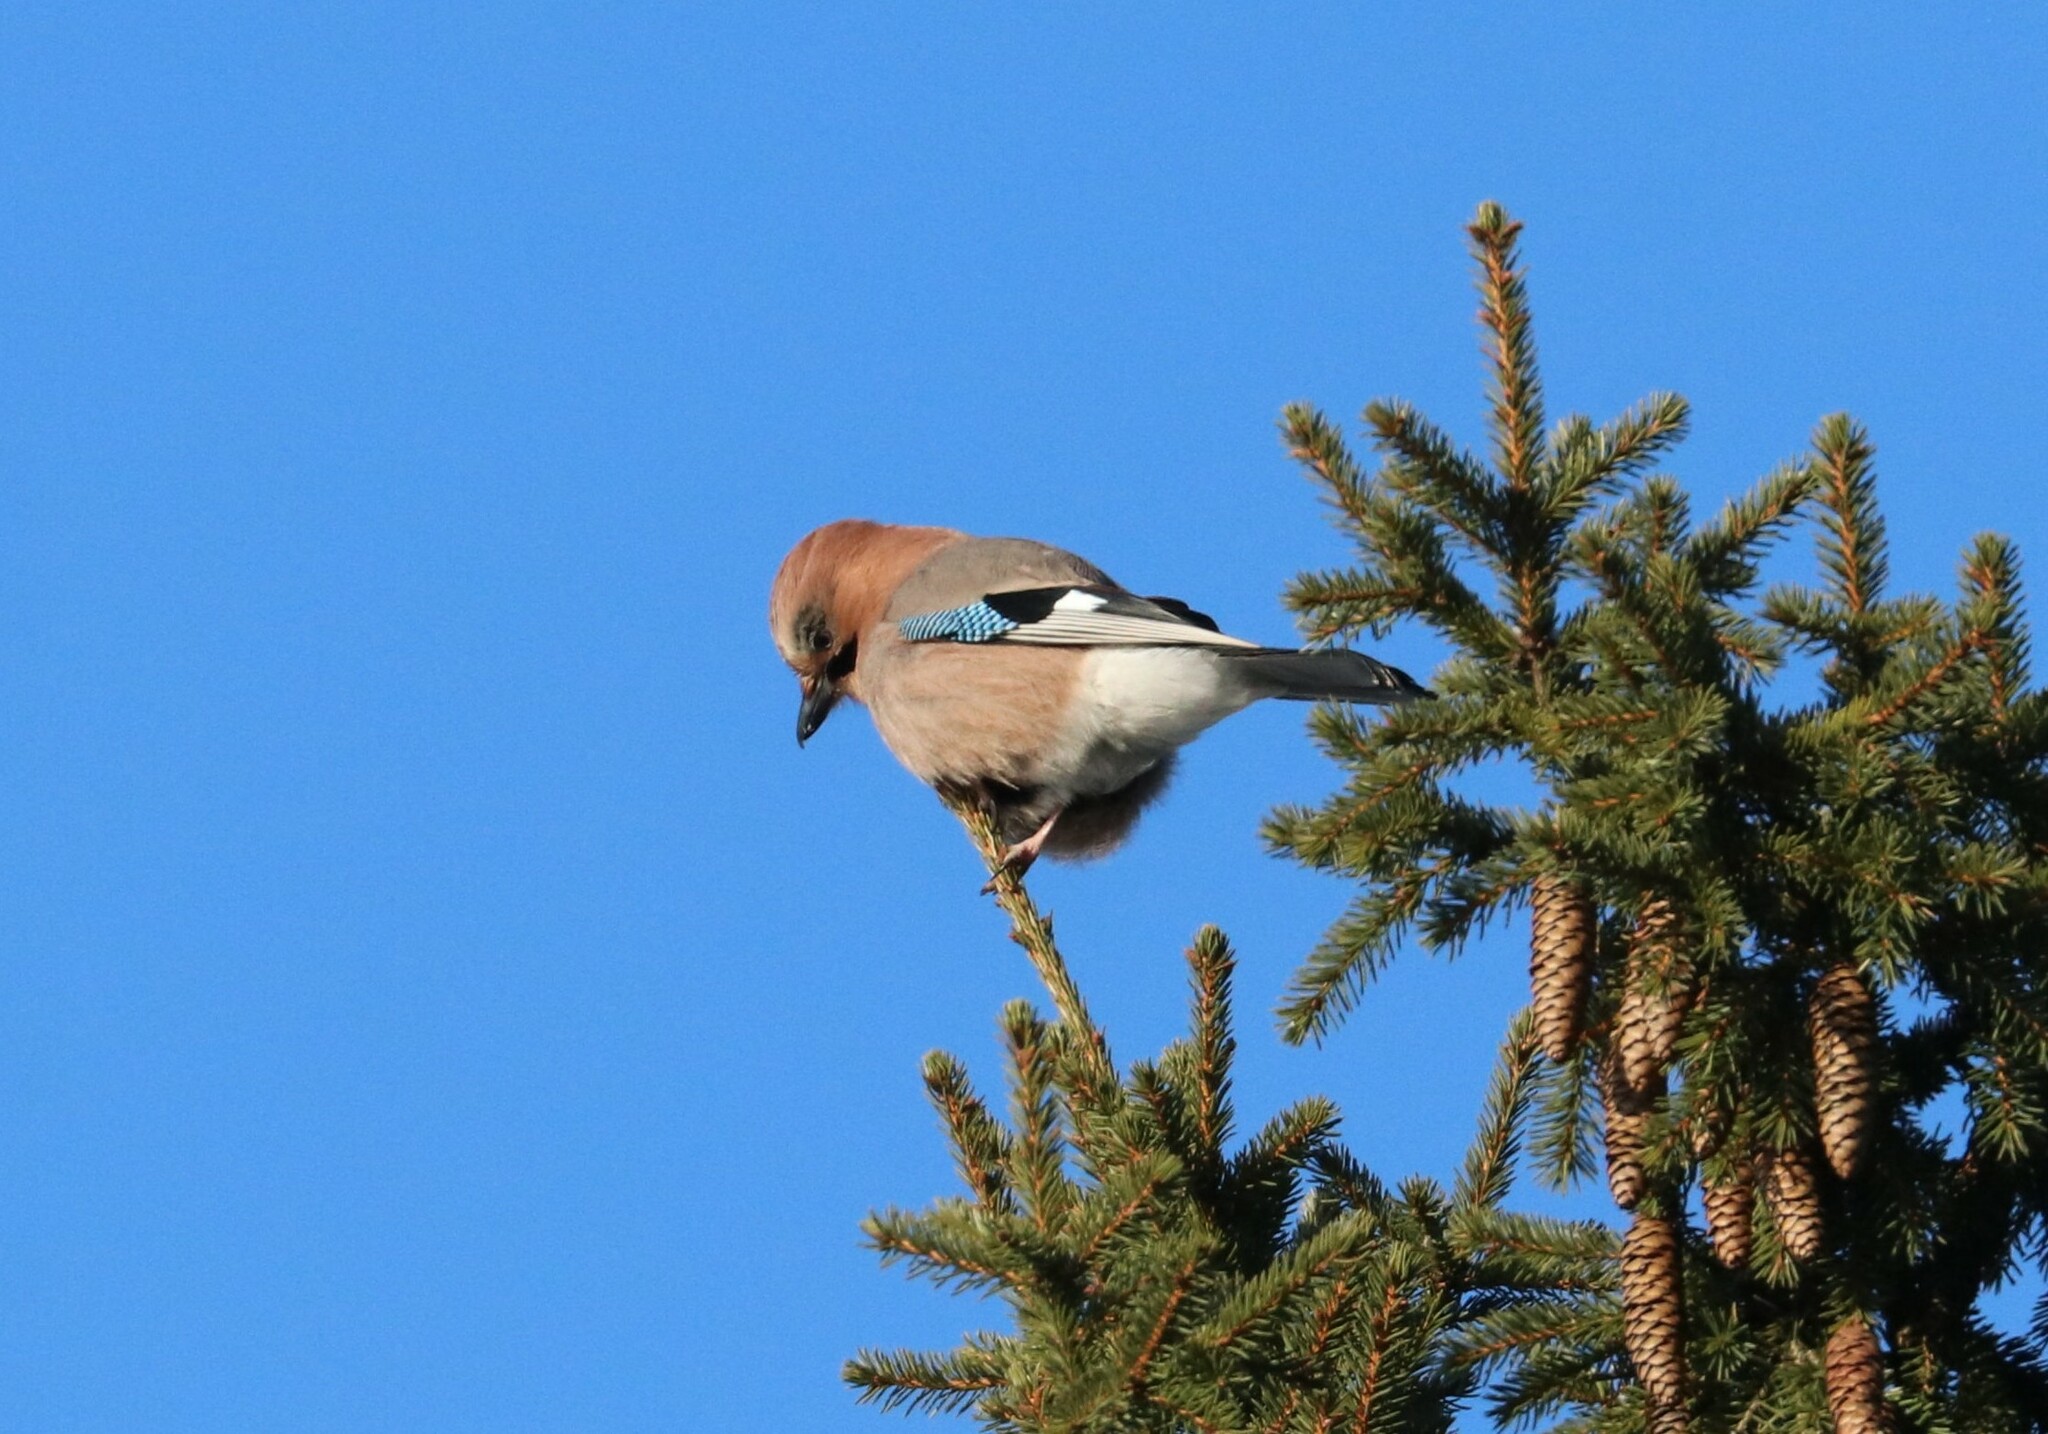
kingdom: Animalia
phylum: Chordata
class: Aves
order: Passeriformes
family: Corvidae
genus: Garrulus
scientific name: Garrulus glandarius
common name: Eurasian jay
